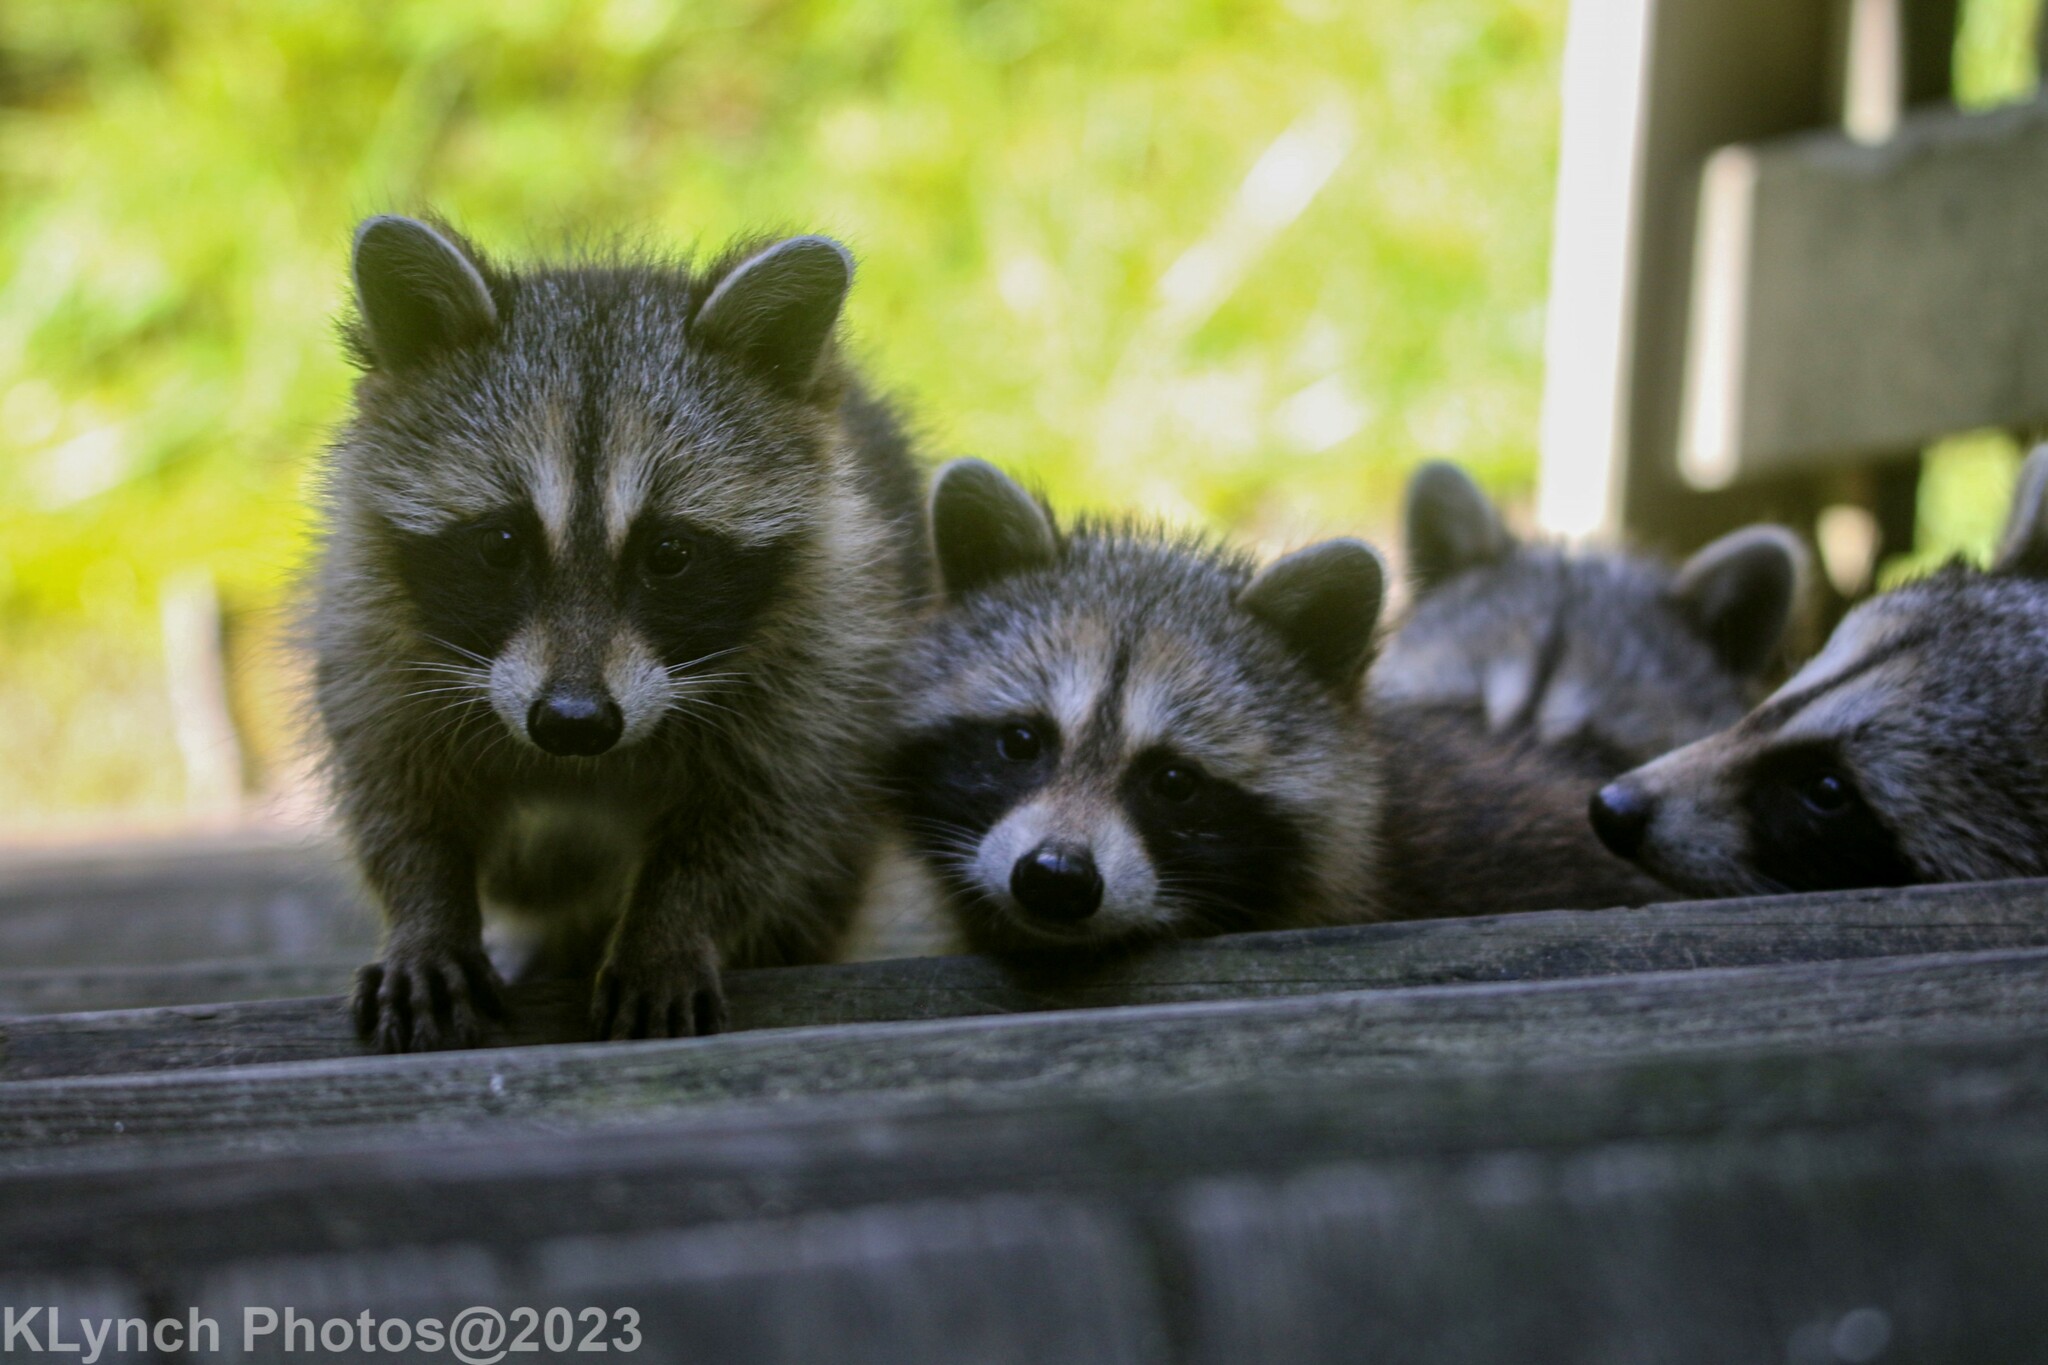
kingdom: Animalia
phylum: Chordata
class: Mammalia
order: Carnivora
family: Procyonidae
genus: Procyon
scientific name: Procyon lotor
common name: Raccoon
